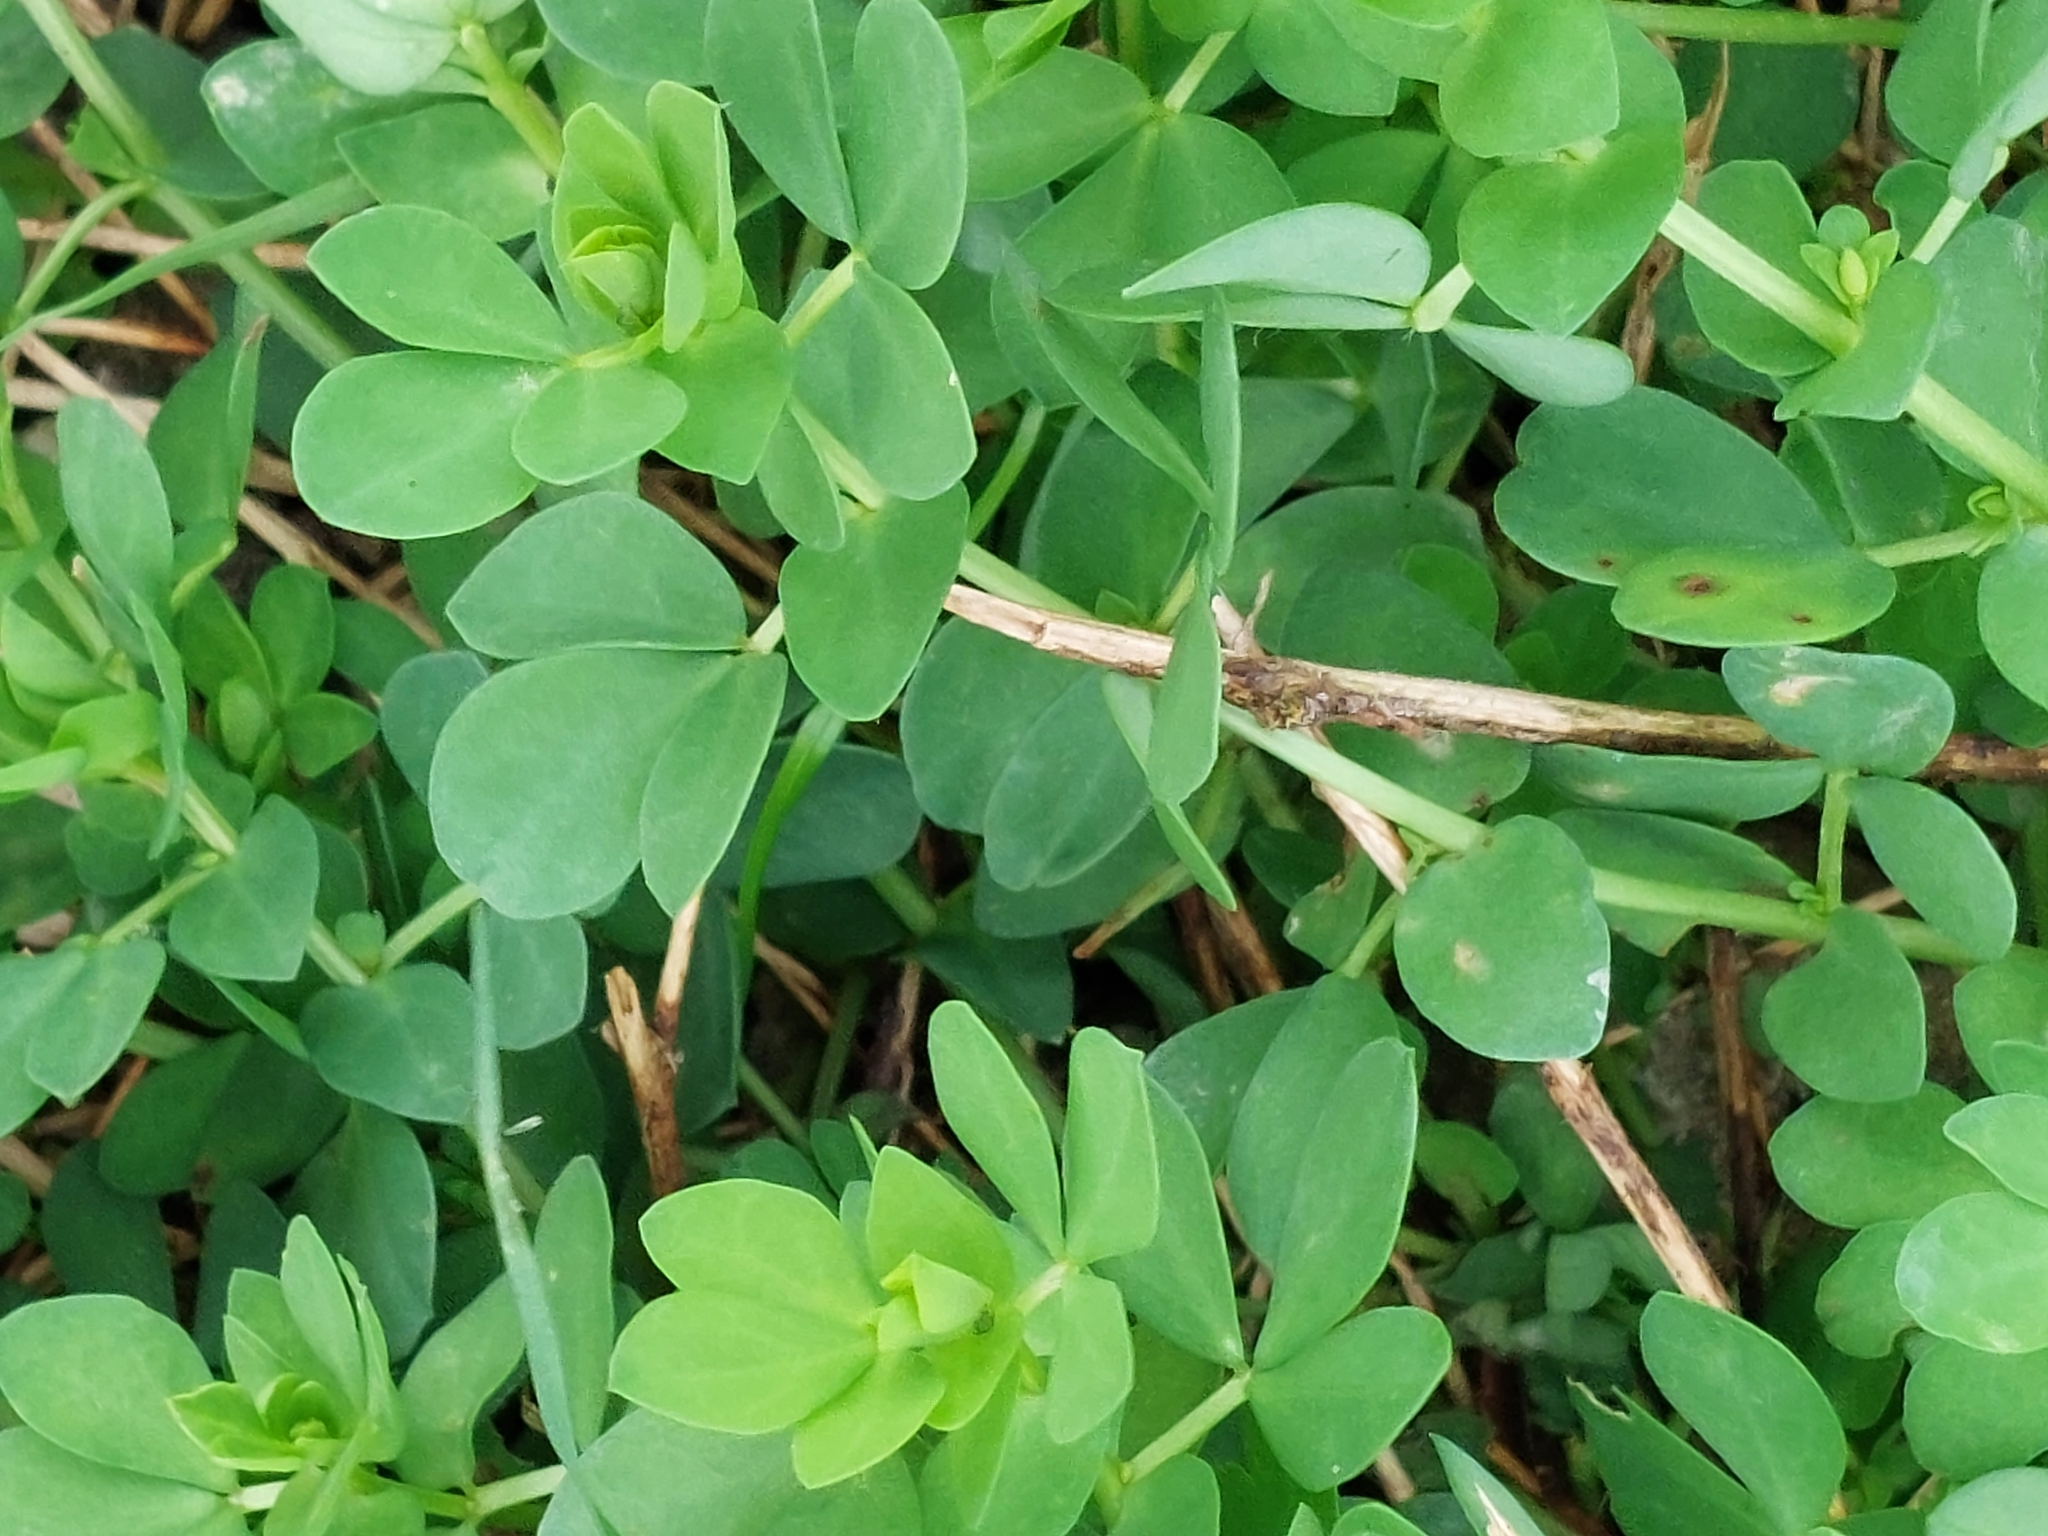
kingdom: Plantae
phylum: Tracheophyta
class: Magnoliopsida
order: Fabales
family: Fabaceae
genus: Lotus
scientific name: Lotus corniculatus
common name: Common bird's-foot-trefoil
